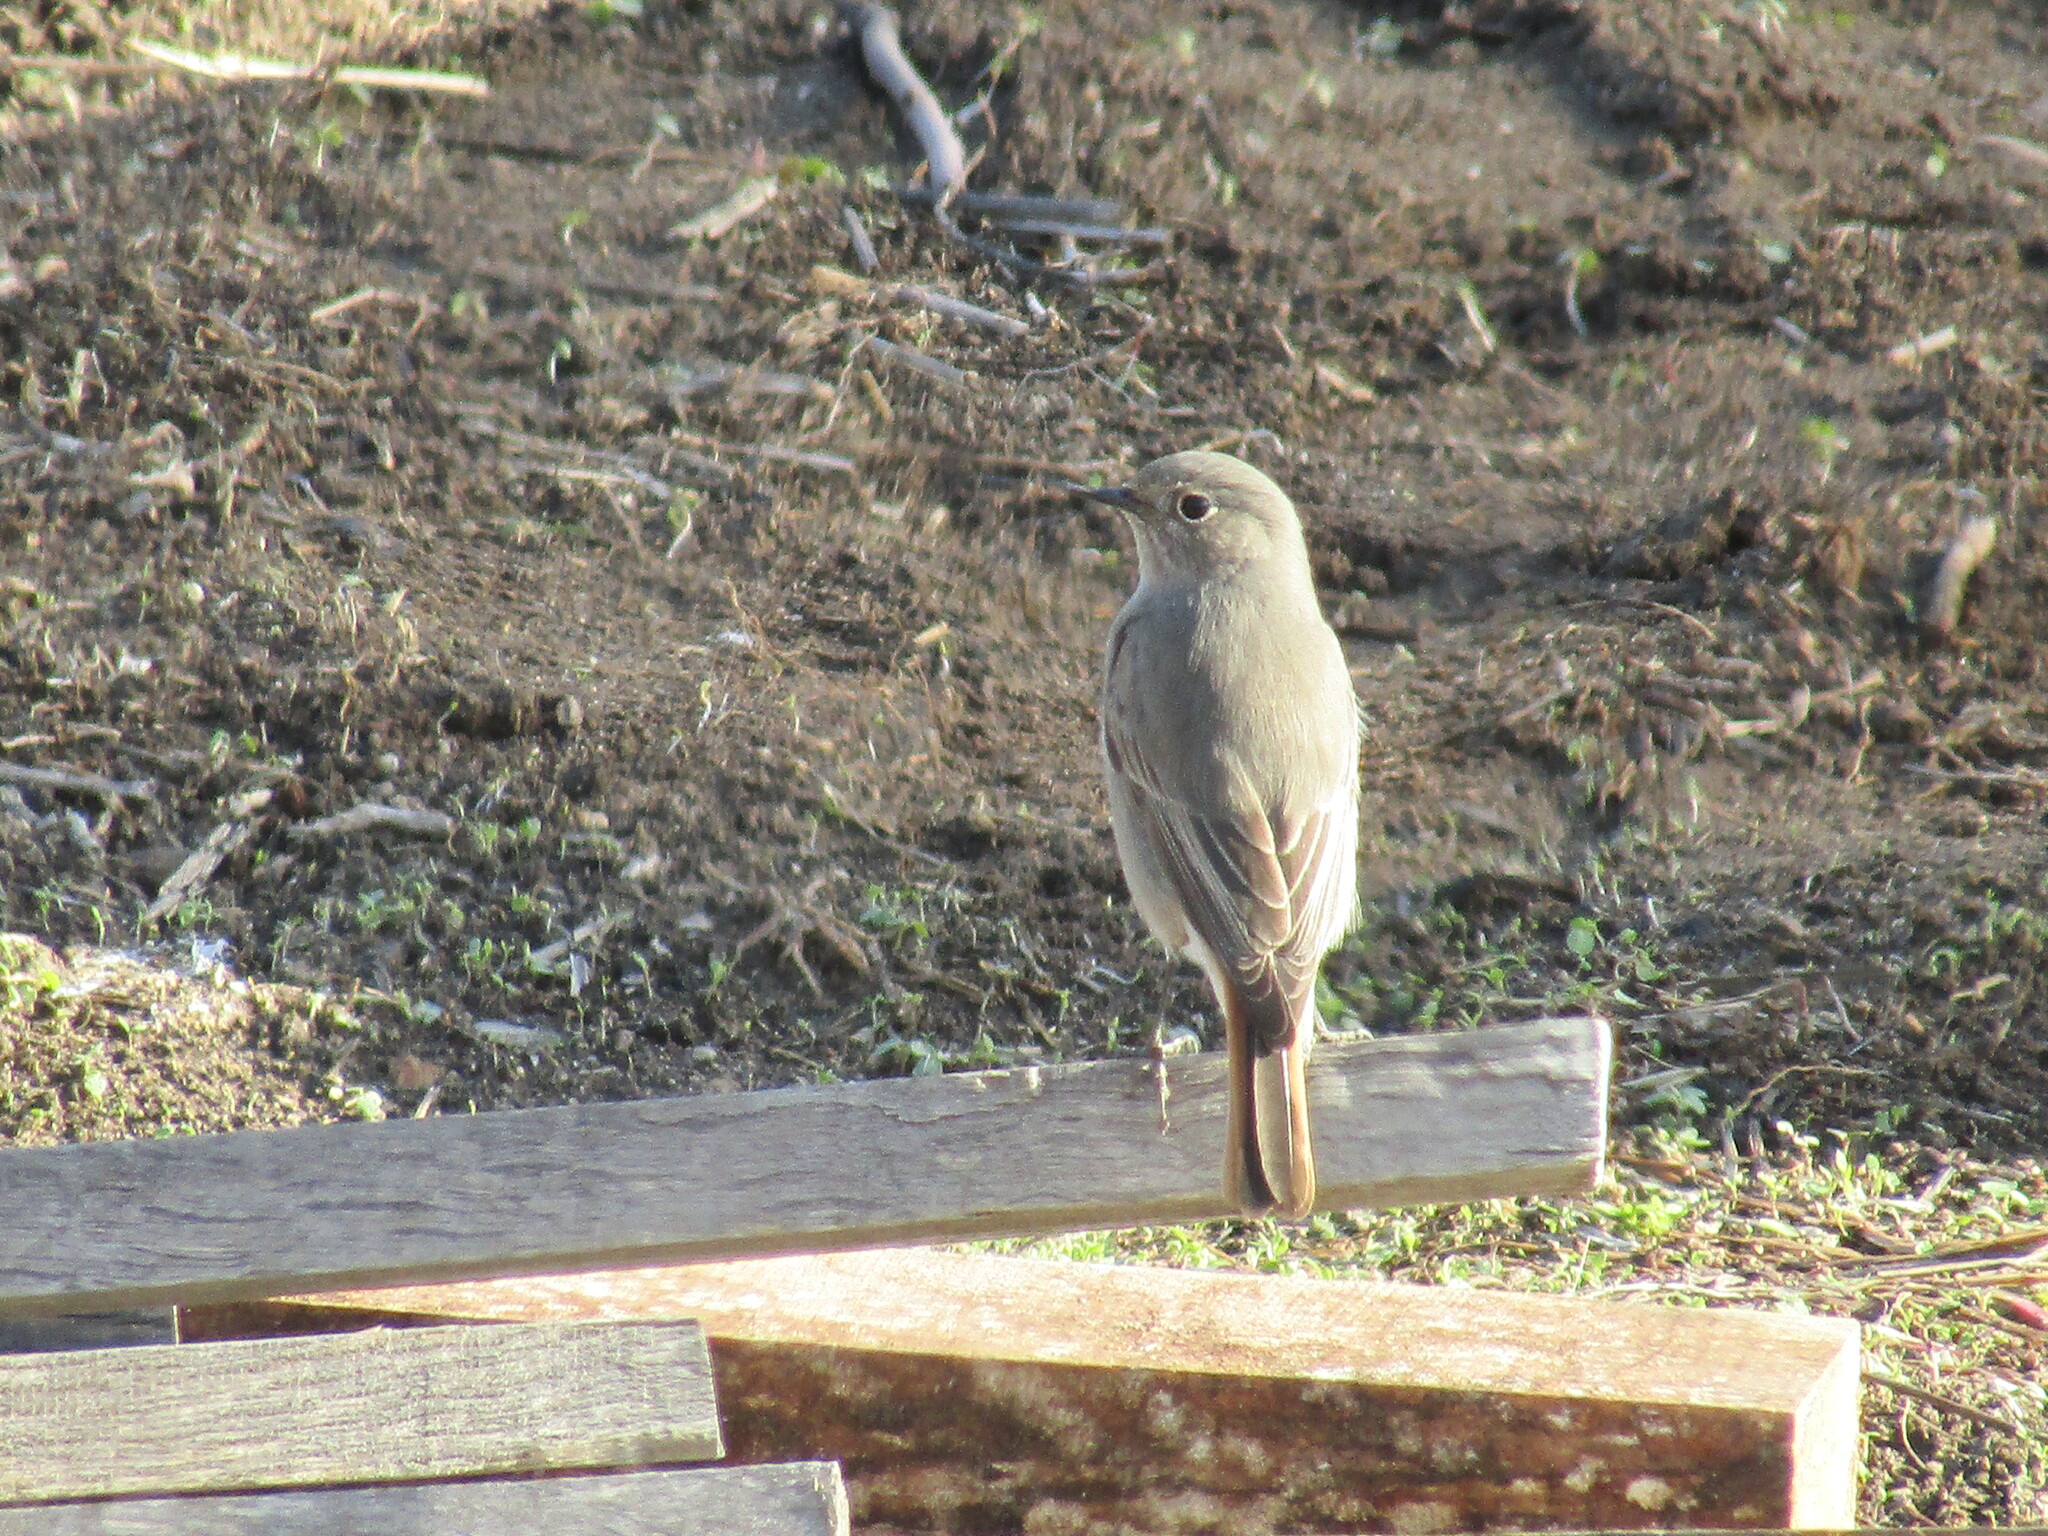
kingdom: Animalia
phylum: Chordata
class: Aves
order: Passeriformes
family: Muscicapidae
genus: Phoenicurus
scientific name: Phoenicurus ochruros
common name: Black redstart
